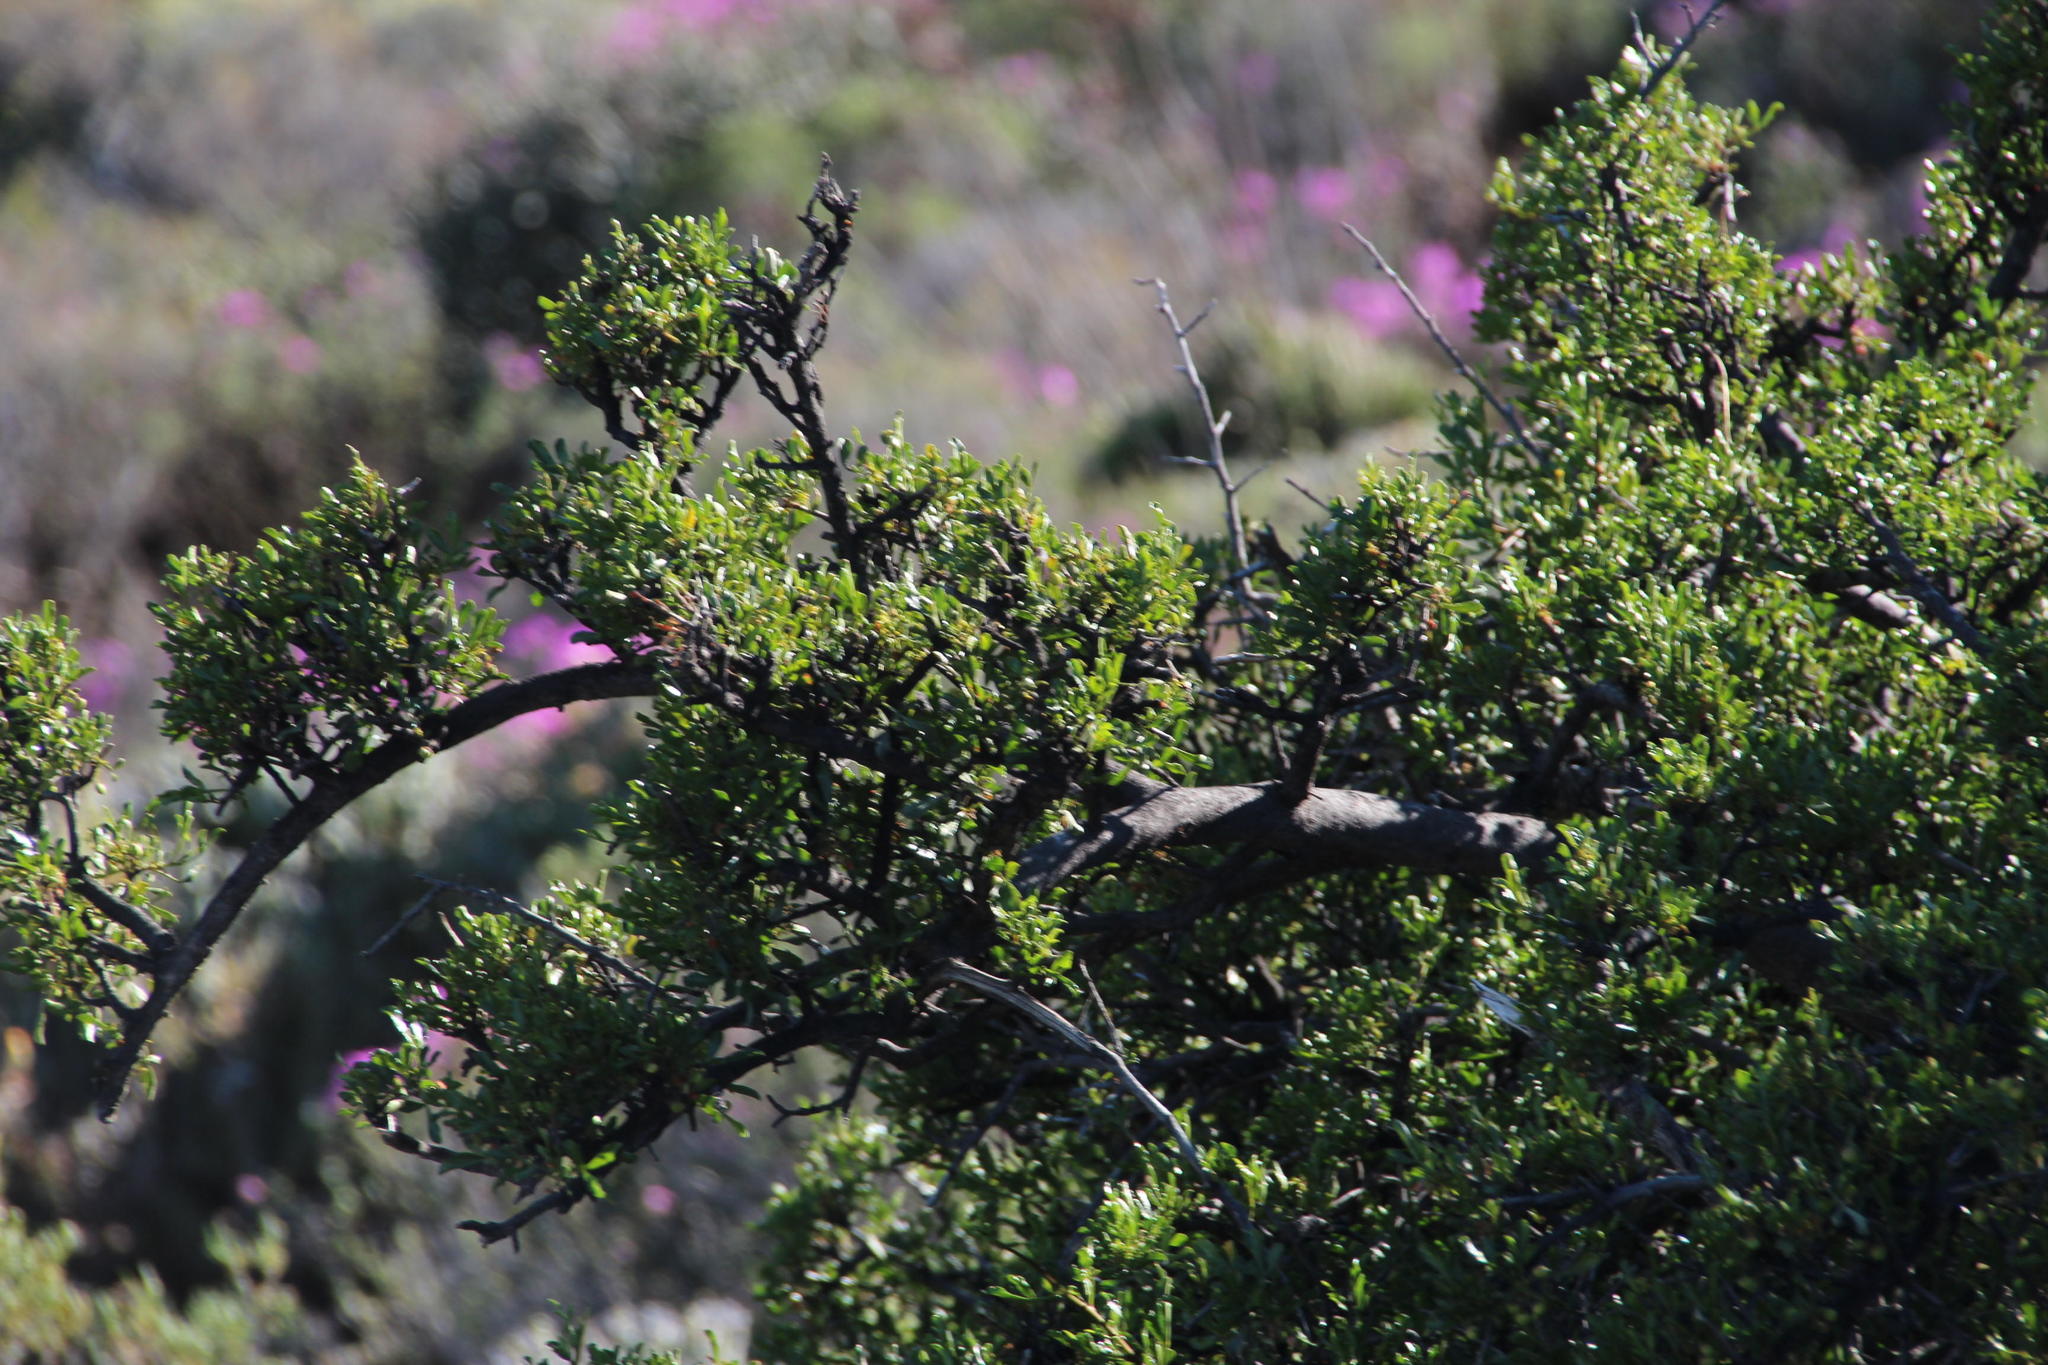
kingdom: Plantae
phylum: Tracheophyta
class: Magnoliopsida
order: Sapindales
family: Anacardiaceae
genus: Searsia
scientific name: Searsia burchellii
